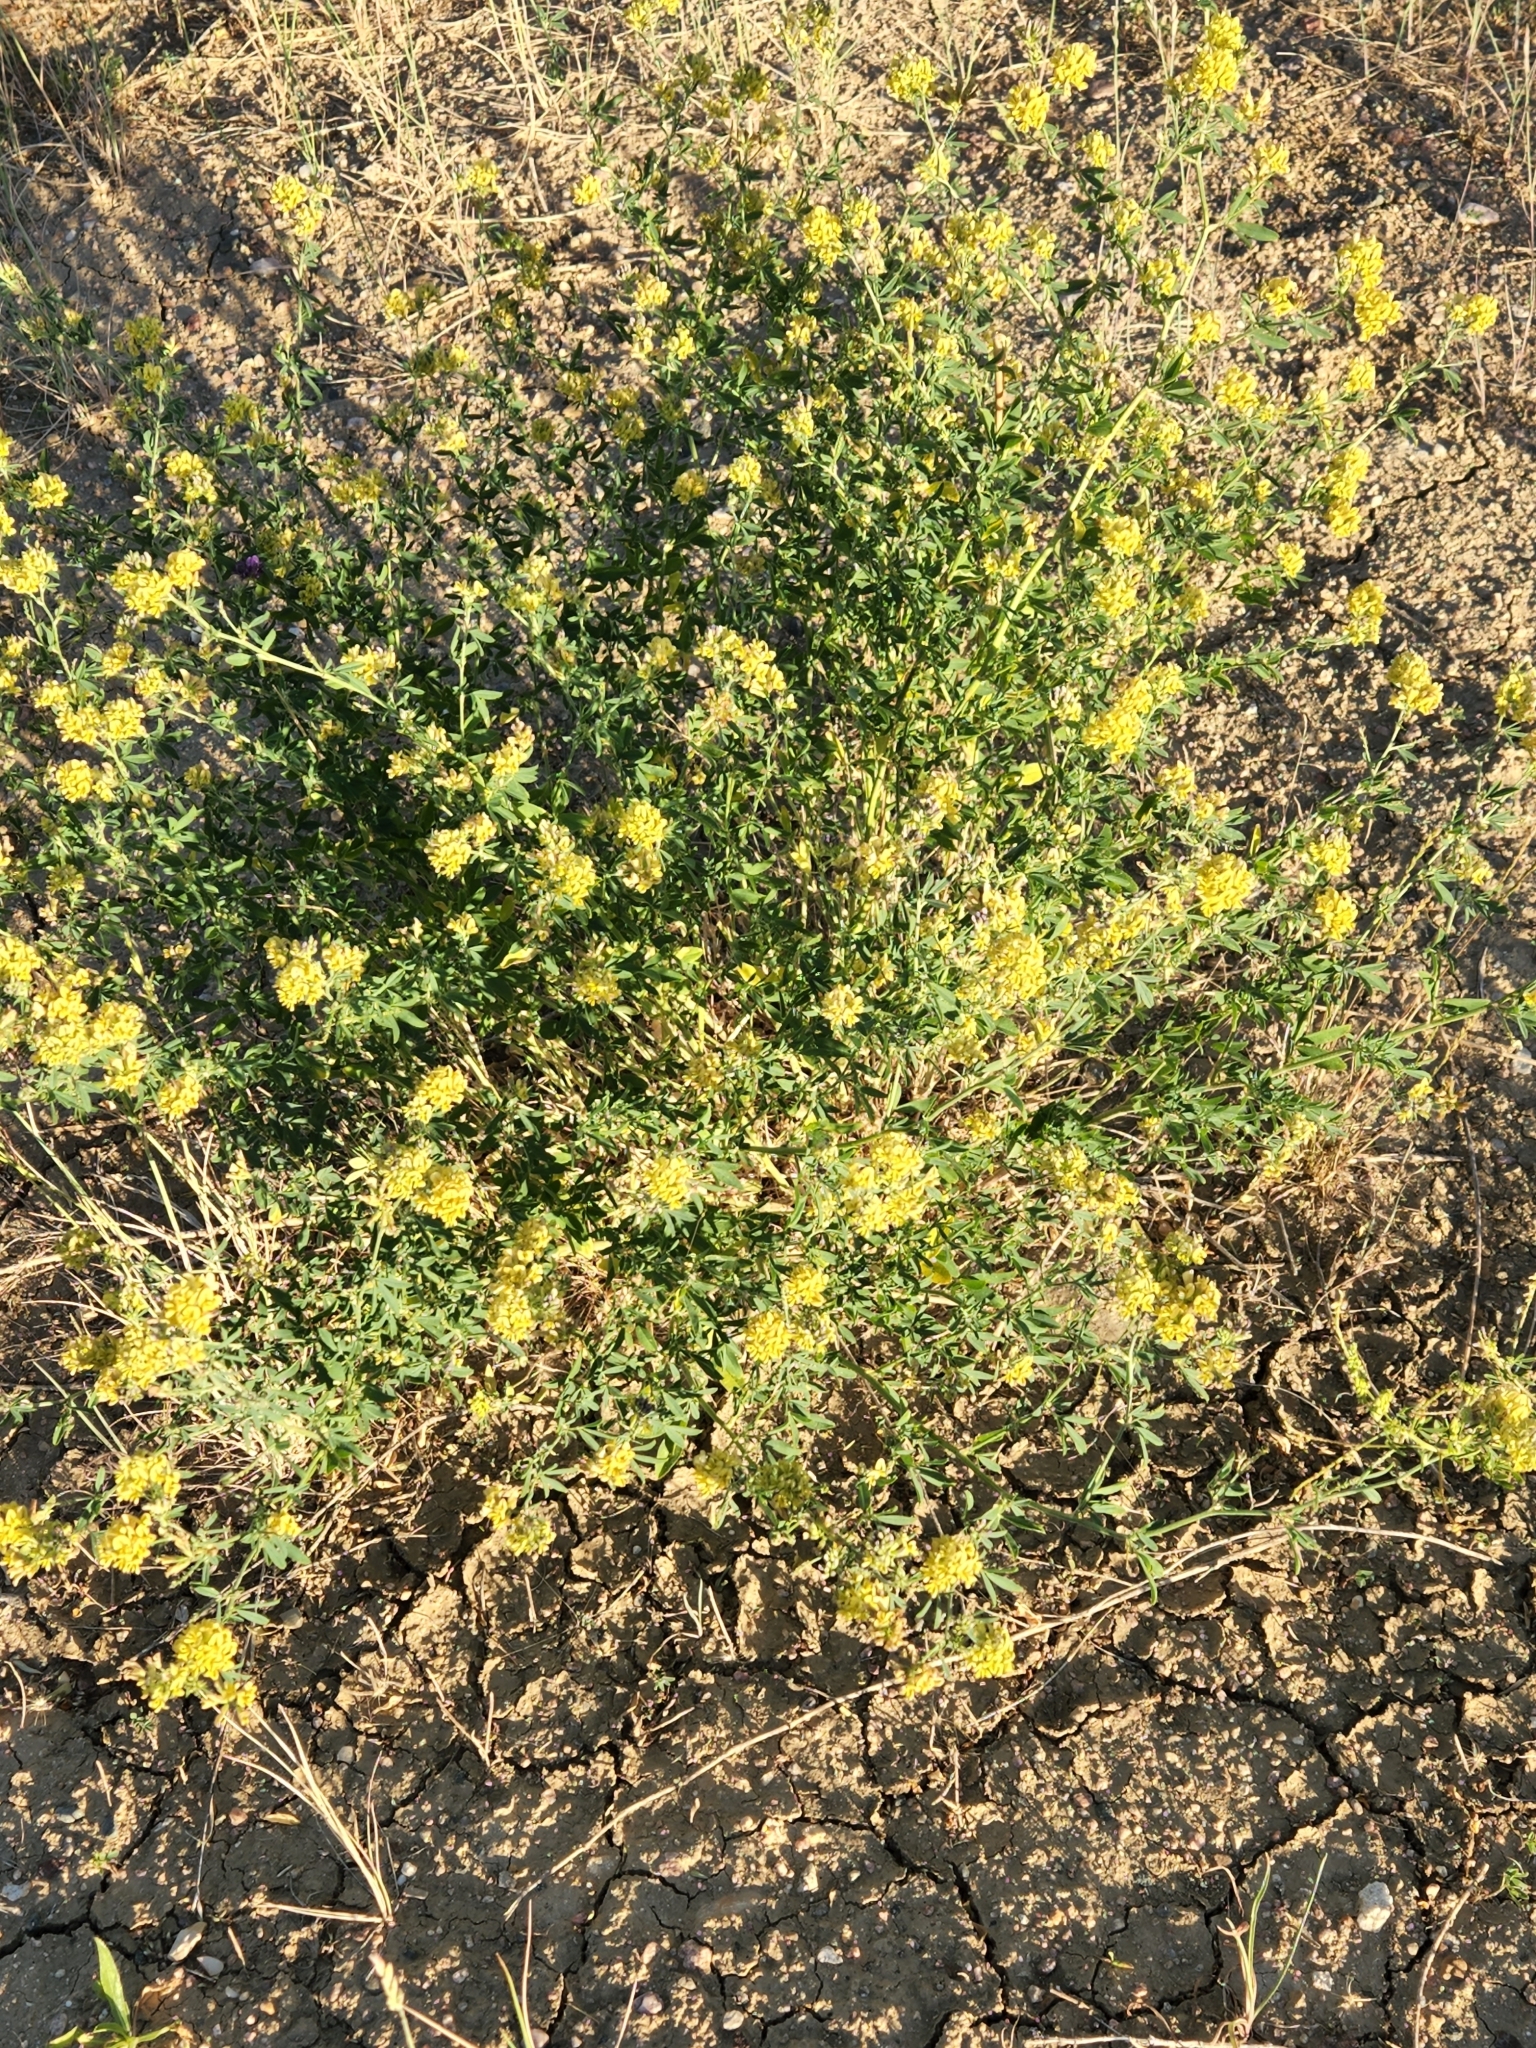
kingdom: Plantae
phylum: Tracheophyta
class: Magnoliopsida
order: Fabales
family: Fabaceae
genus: Medicago
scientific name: Medicago varia
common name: Sand lucerne
